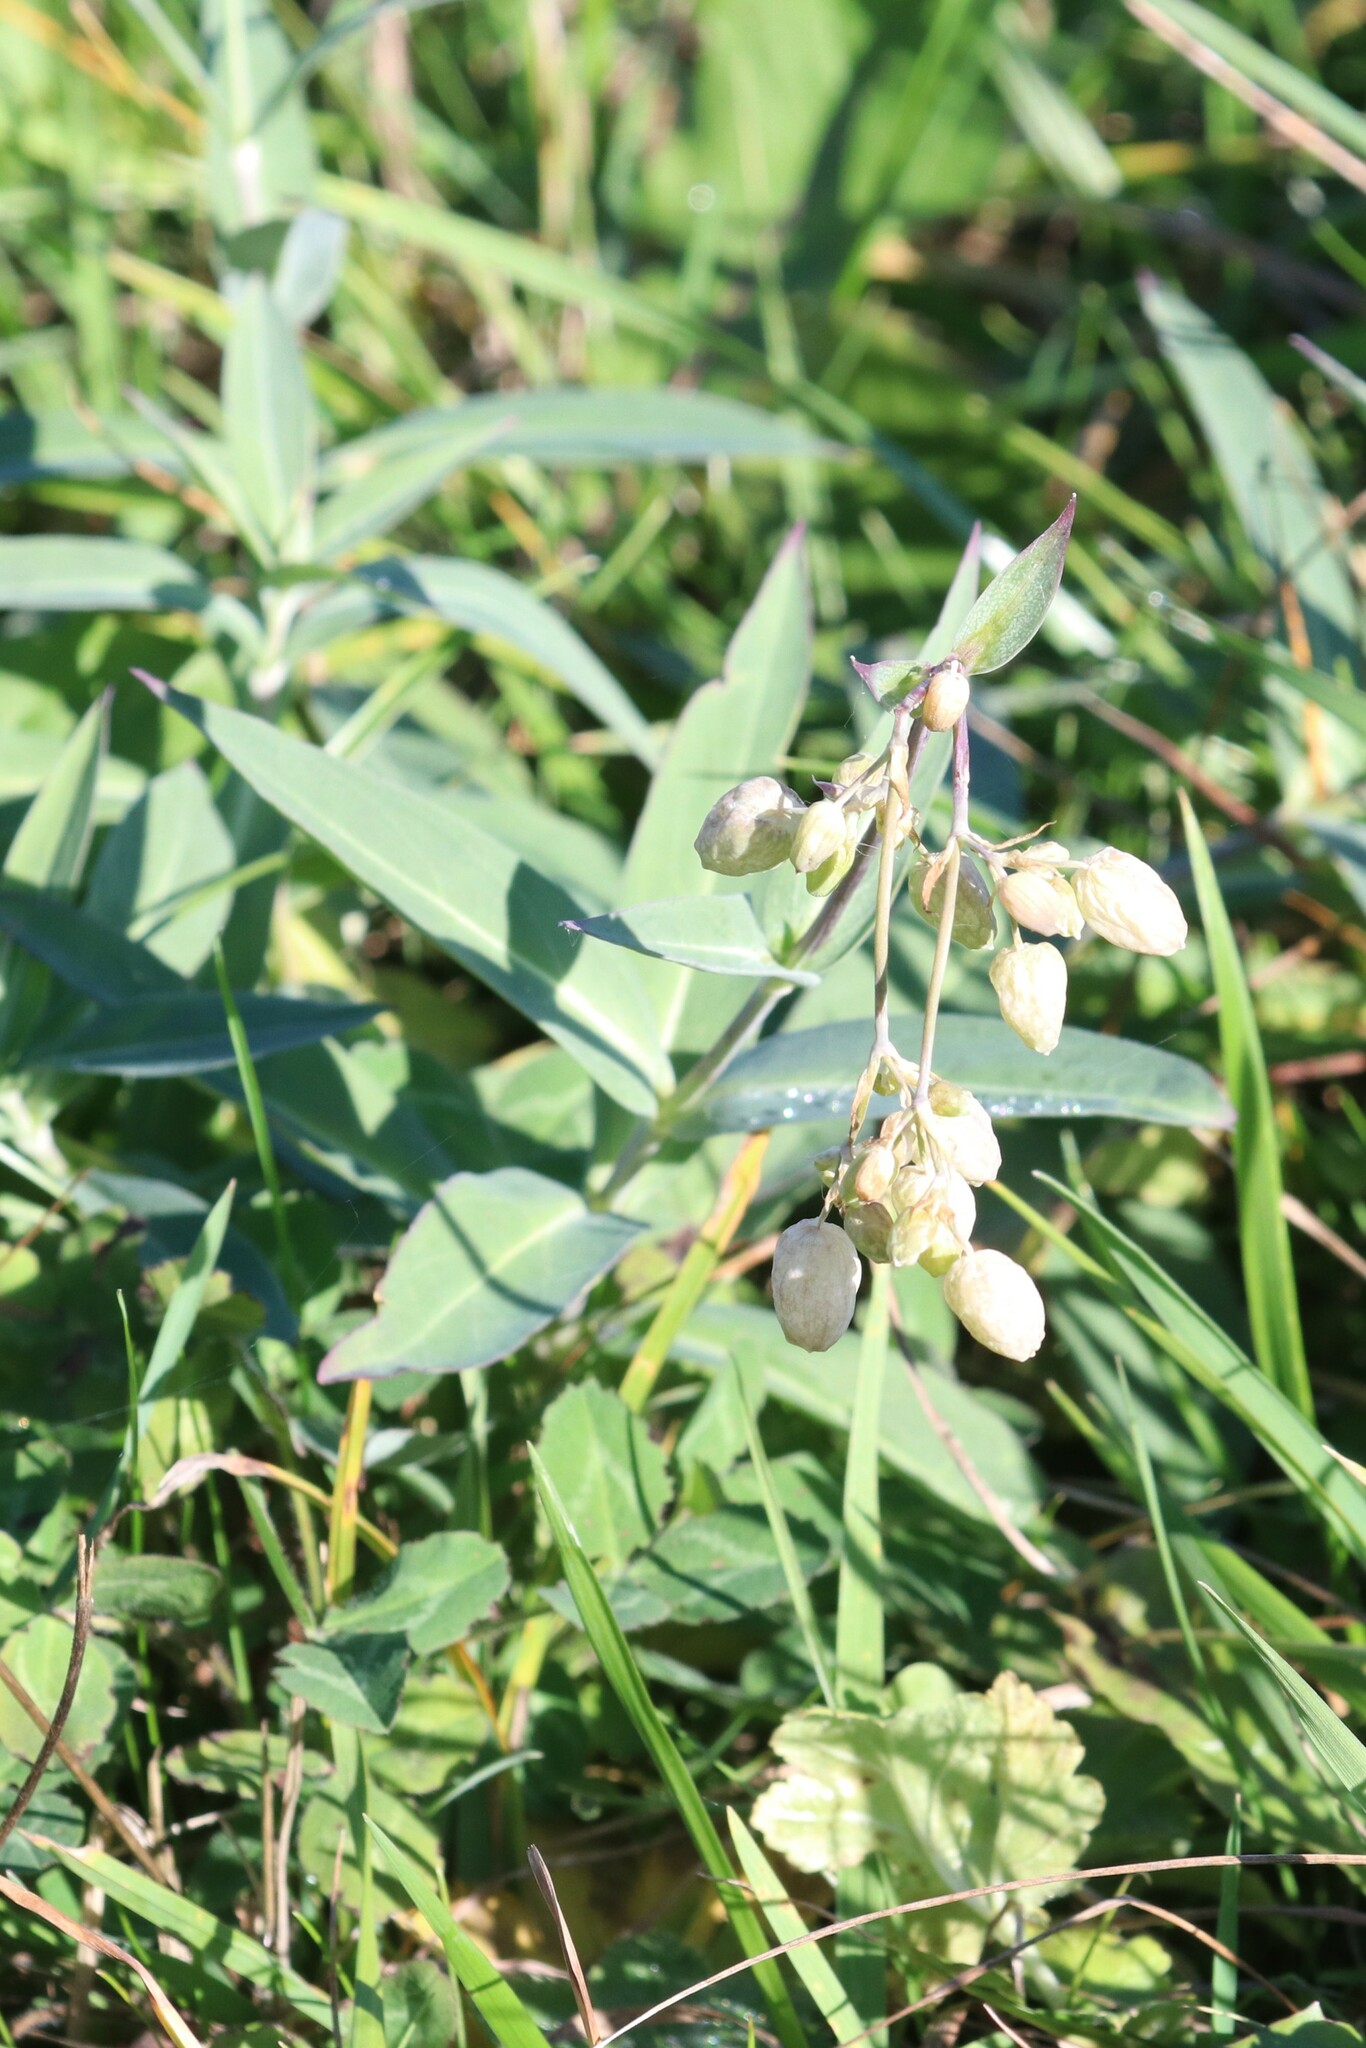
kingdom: Plantae
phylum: Tracheophyta
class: Magnoliopsida
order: Caryophyllales
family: Caryophyllaceae
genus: Silene
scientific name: Silene vulgaris
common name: Bladder campion
